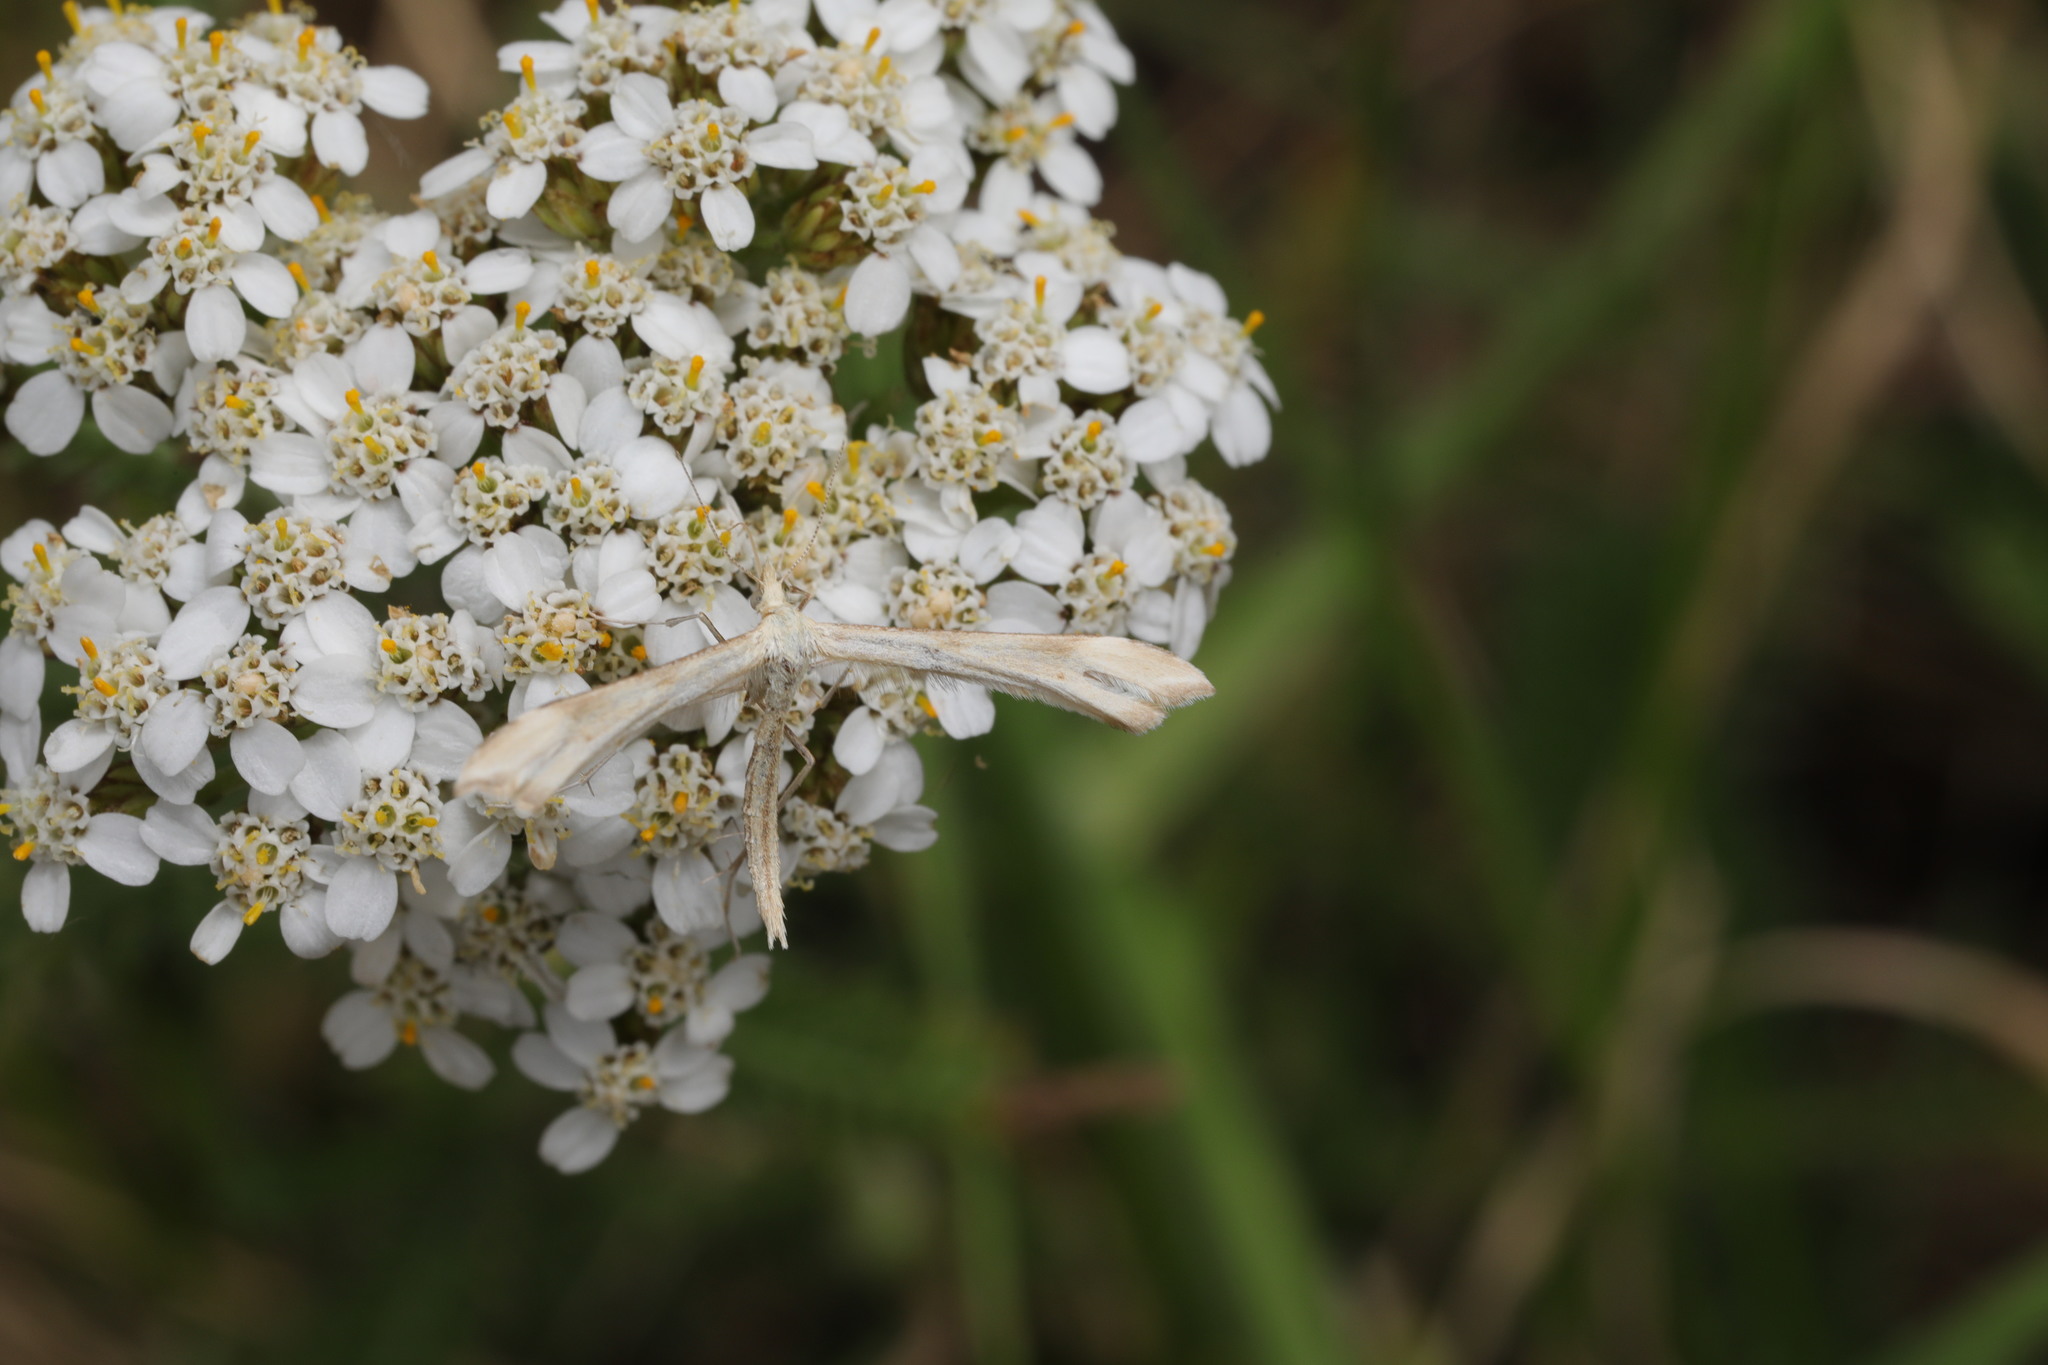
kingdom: Animalia
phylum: Arthropoda
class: Insecta
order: Lepidoptera
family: Pterophoridae
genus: Gillmeria
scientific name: Gillmeria pallidactyla
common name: Yarrow plume
